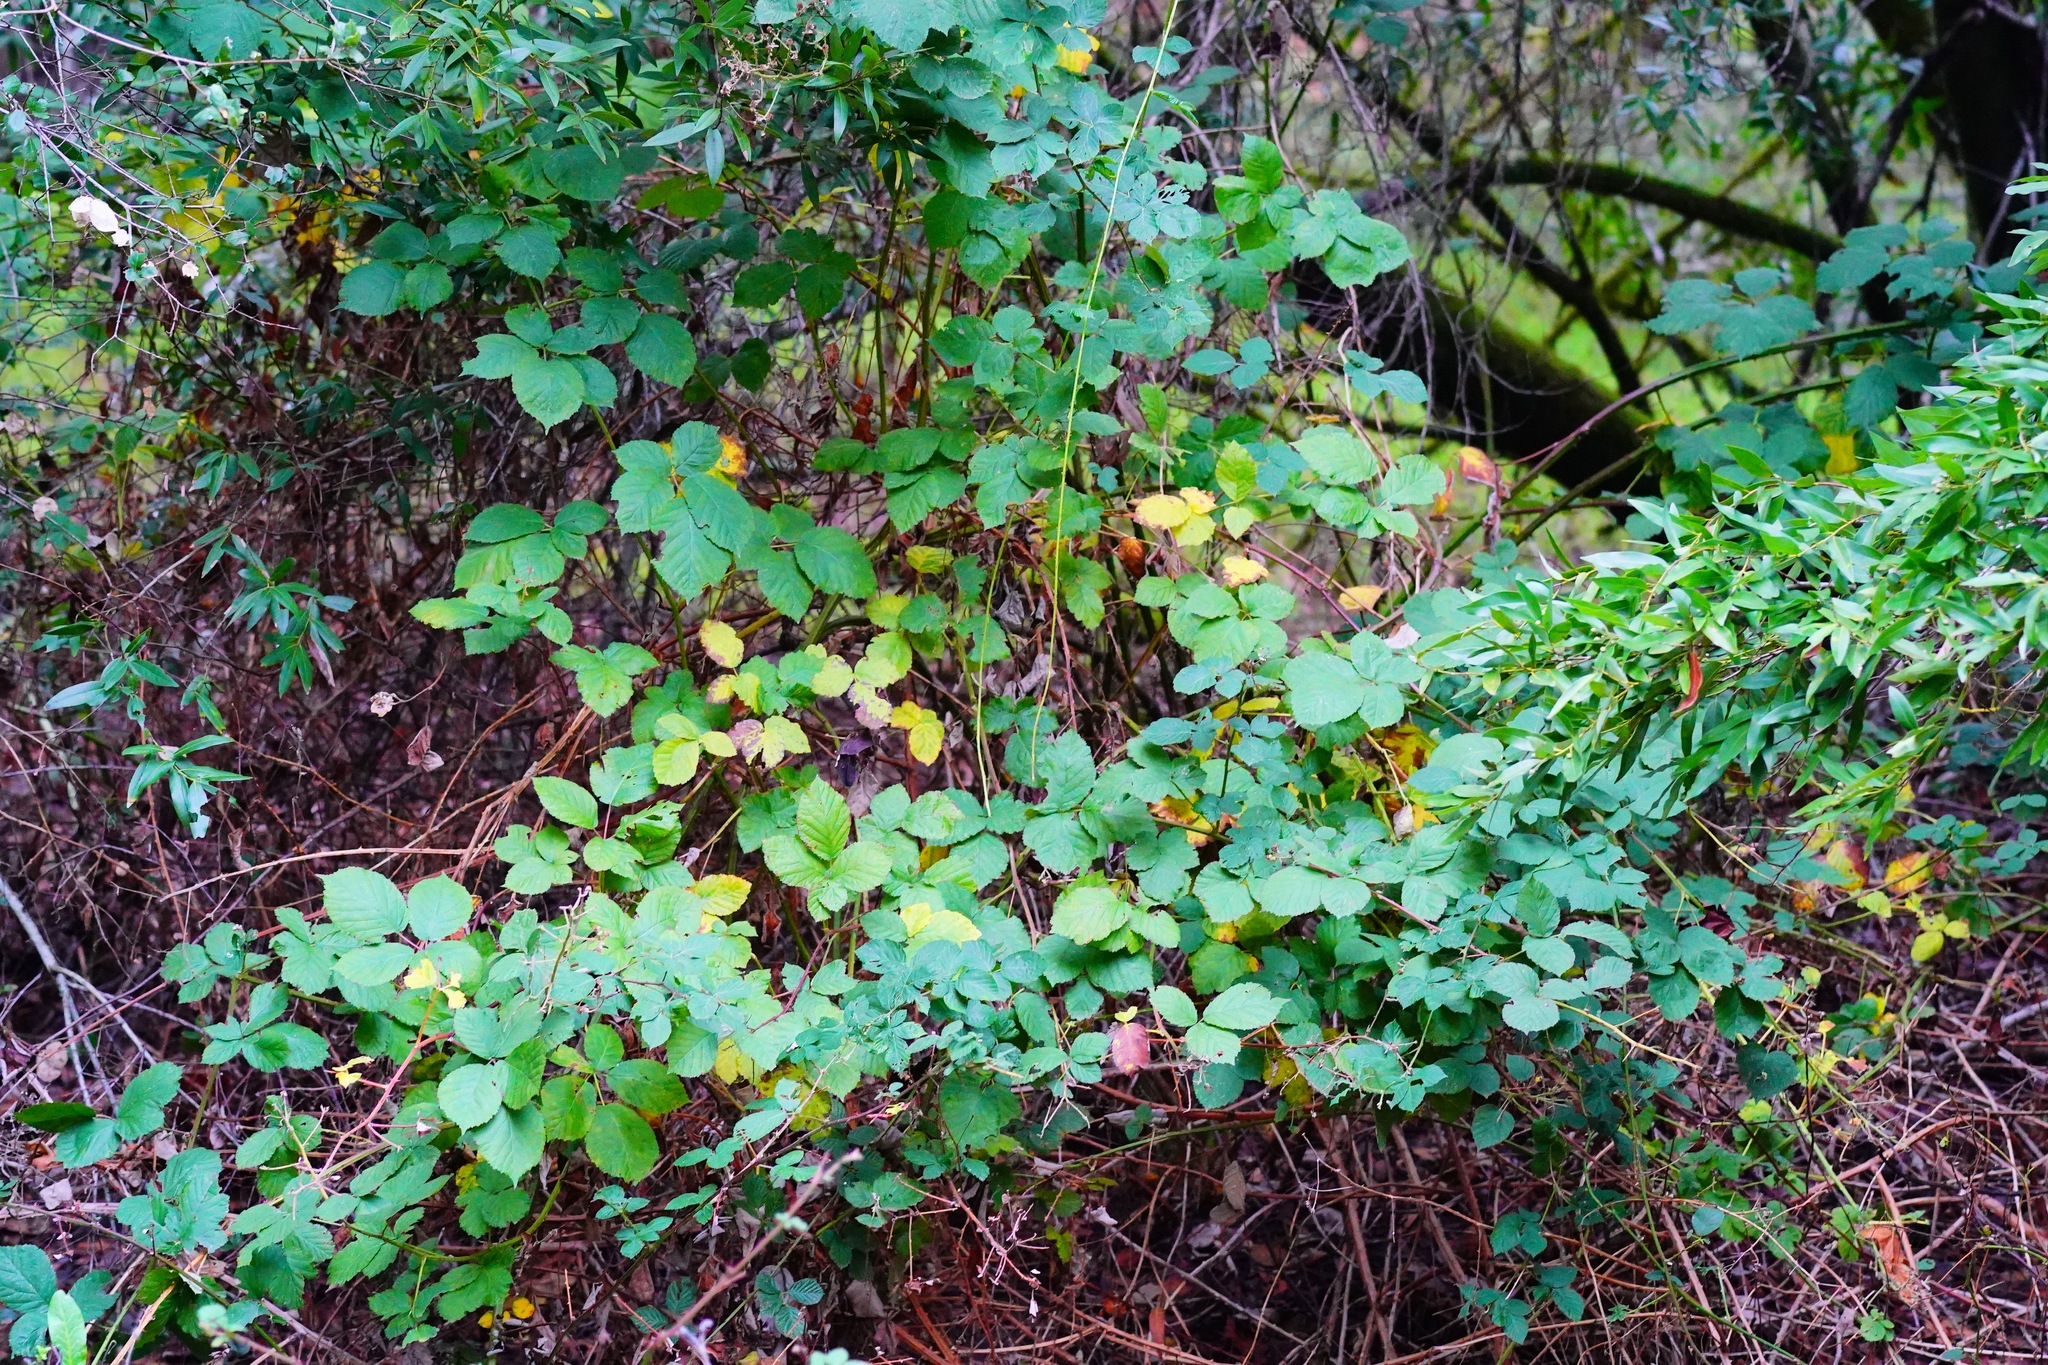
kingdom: Plantae
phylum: Tracheophyta
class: Magnoliopsida
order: Rosales
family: Rosaceae
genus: Rubus
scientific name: Rubus armeniacus
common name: Himalayan blackberry
